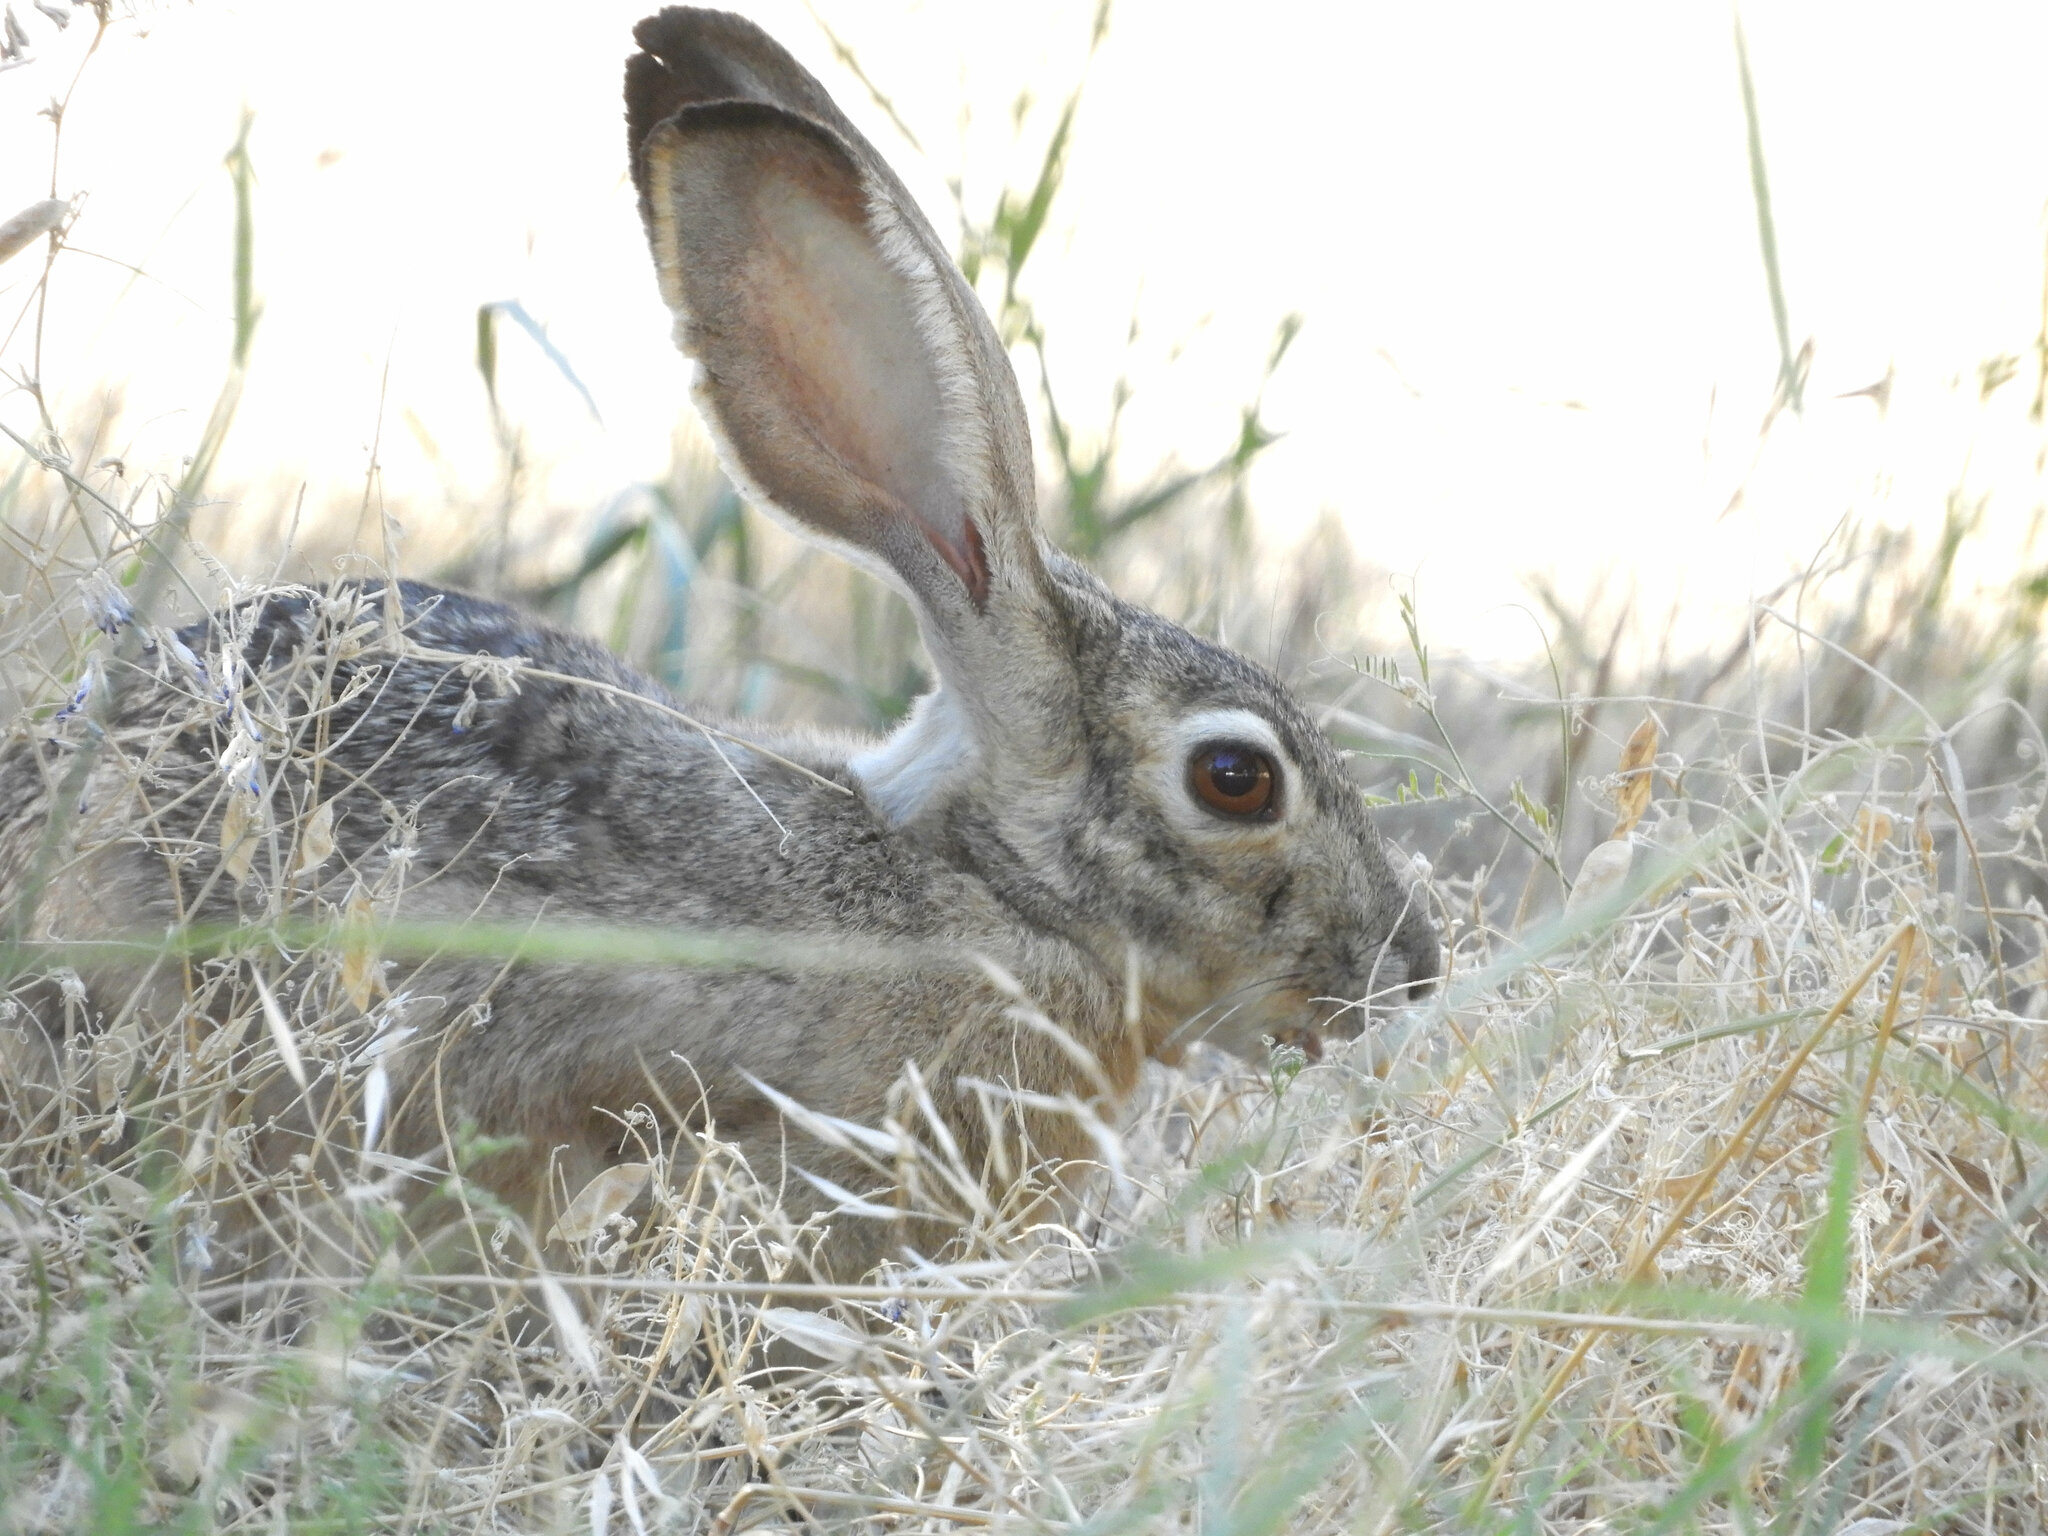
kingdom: Animalia
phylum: Chordata
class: Mammalia
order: Lagomorpha
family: Leporidae
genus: Lepus
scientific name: Lepus californicus
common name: Black-tailed jackrabbit
